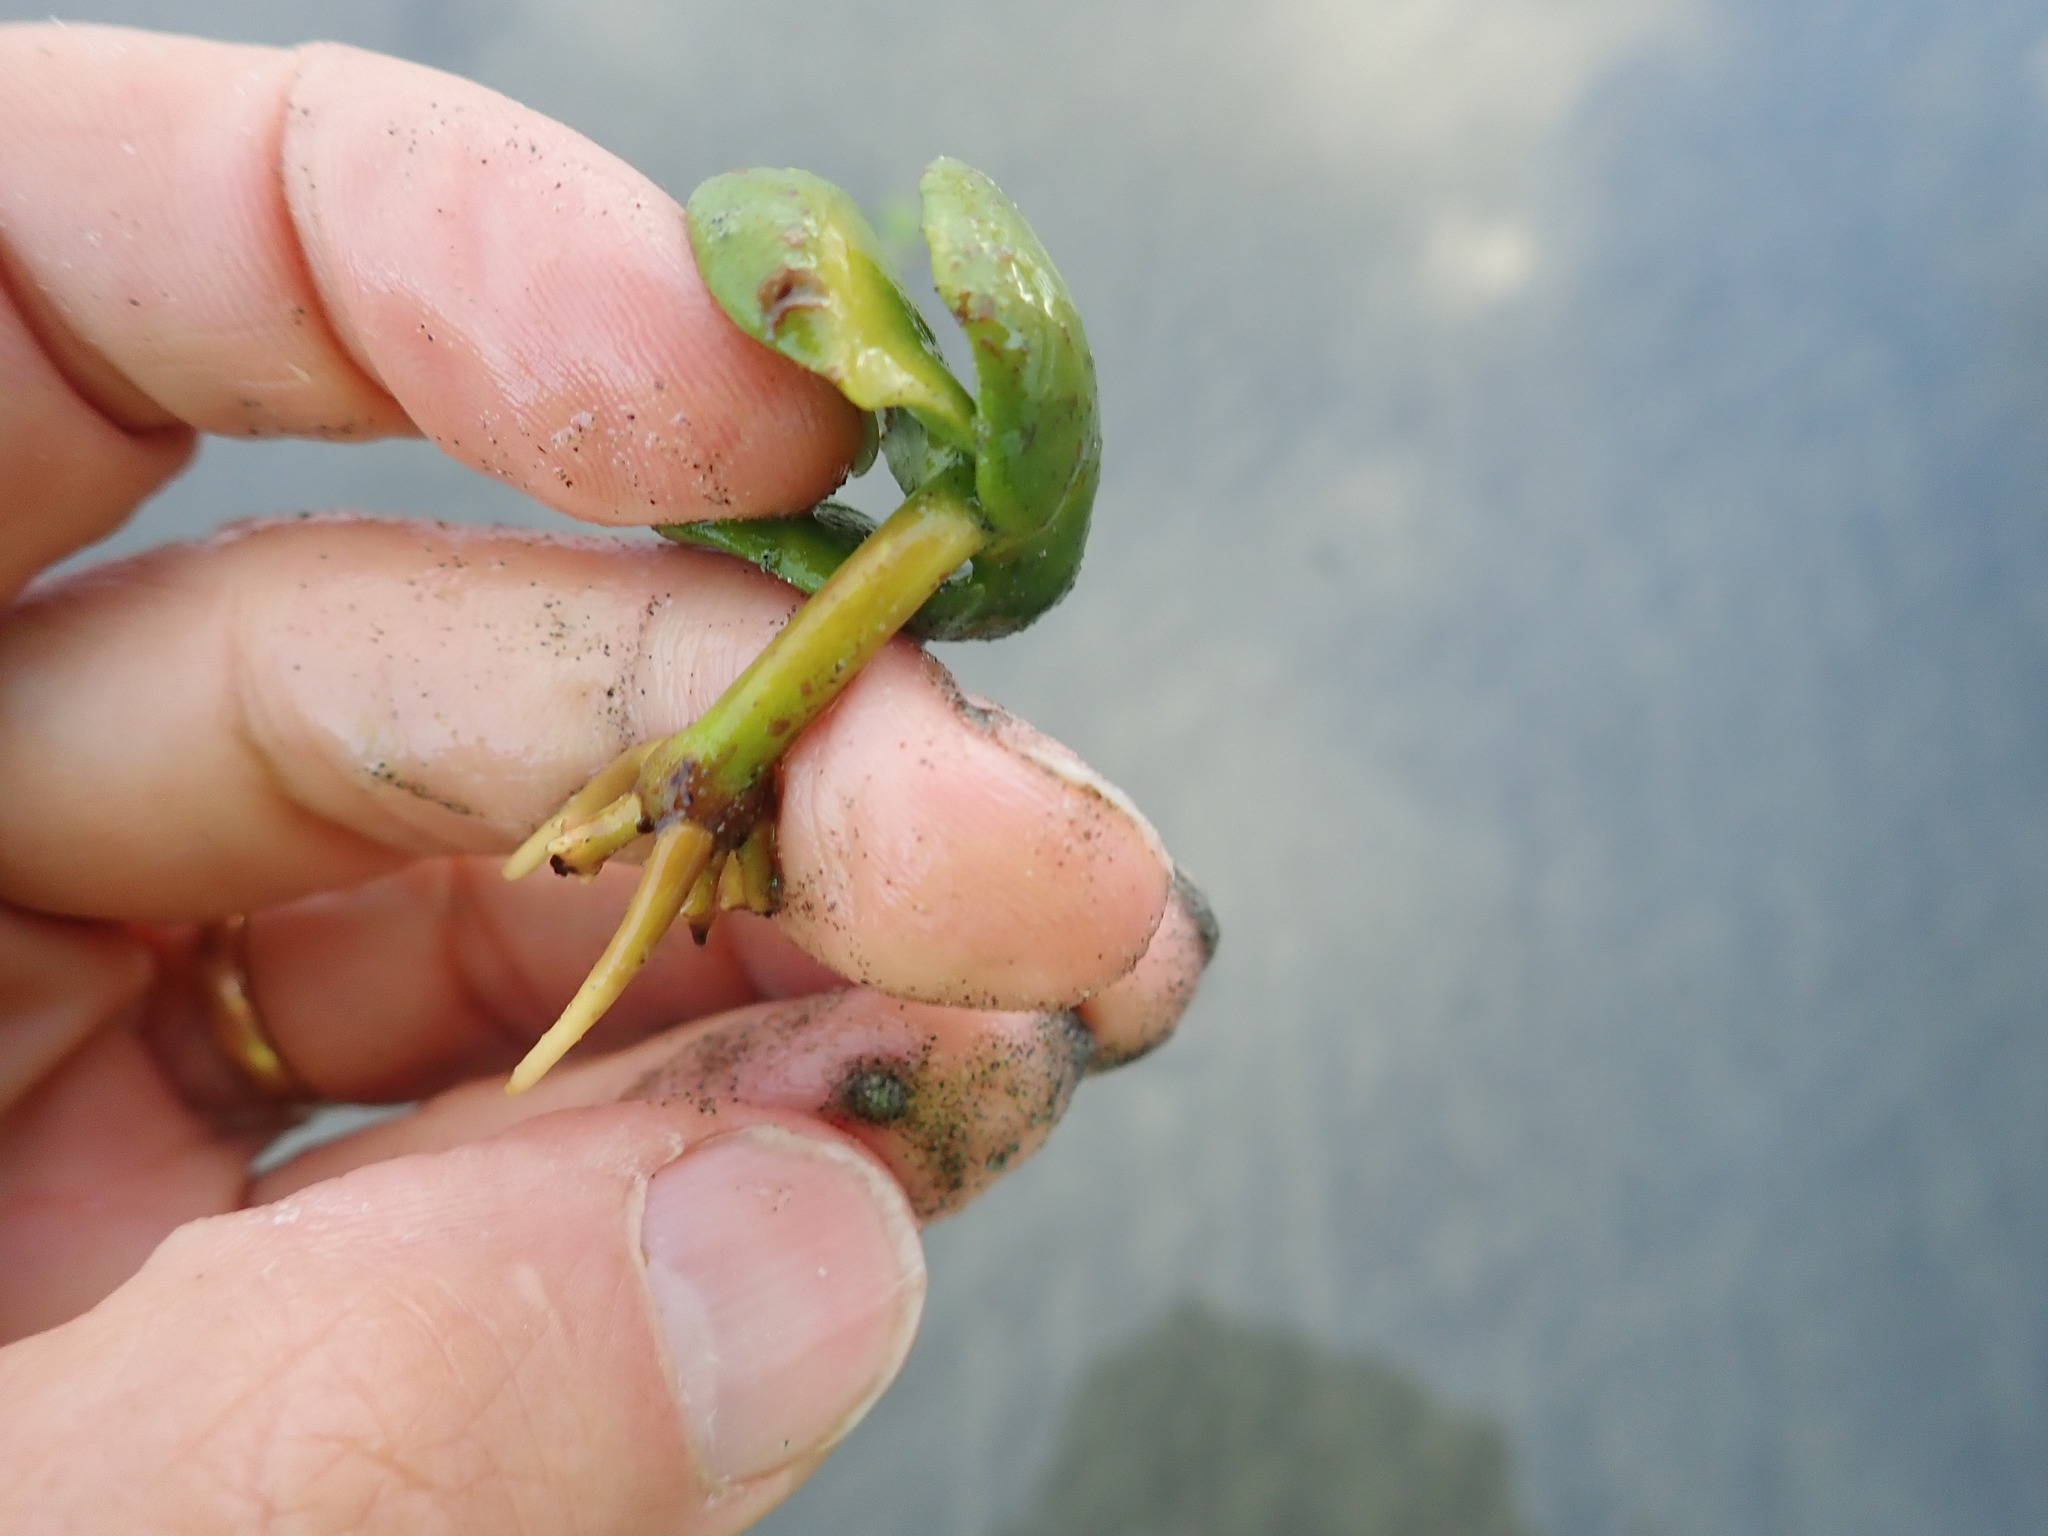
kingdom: Plantae
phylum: Tracheophyta
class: Magnoliopsida
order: Lamiales
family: Acanthaceae
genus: Avicennia
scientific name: Avicennia marina
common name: Gray mangrove
